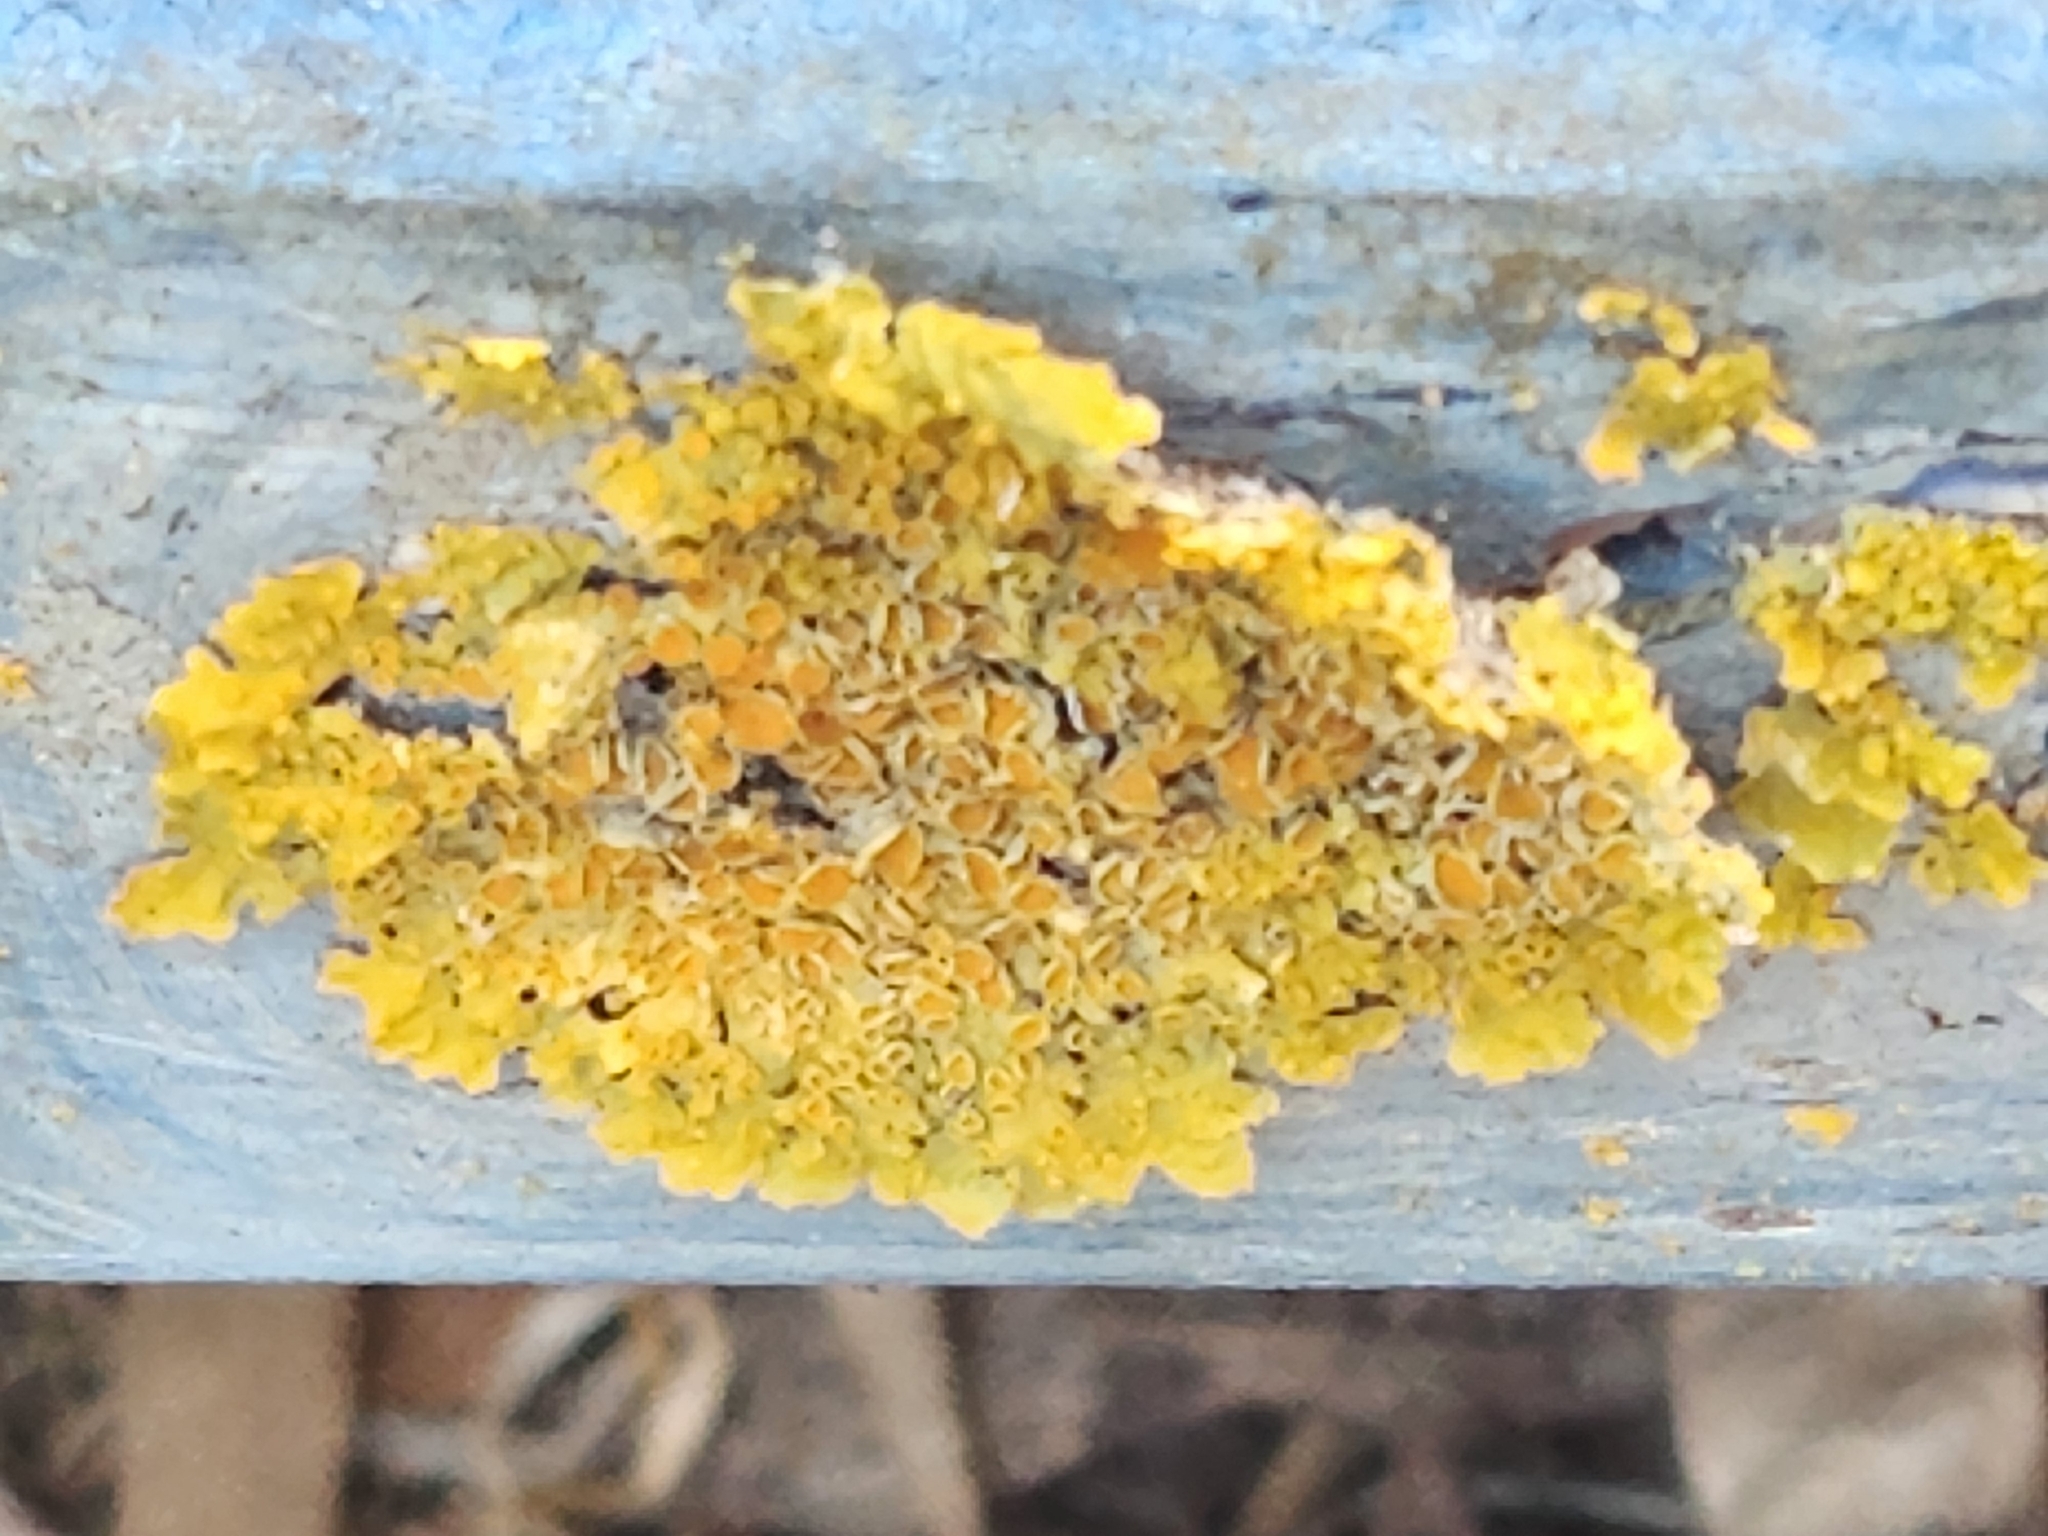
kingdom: Fungi
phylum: Ascomycota
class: Lecanoromycetes
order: Teloschistales
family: Teloschistaceae
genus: Xanthoria
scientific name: Xanthoria parietina
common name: Common orange lichen
